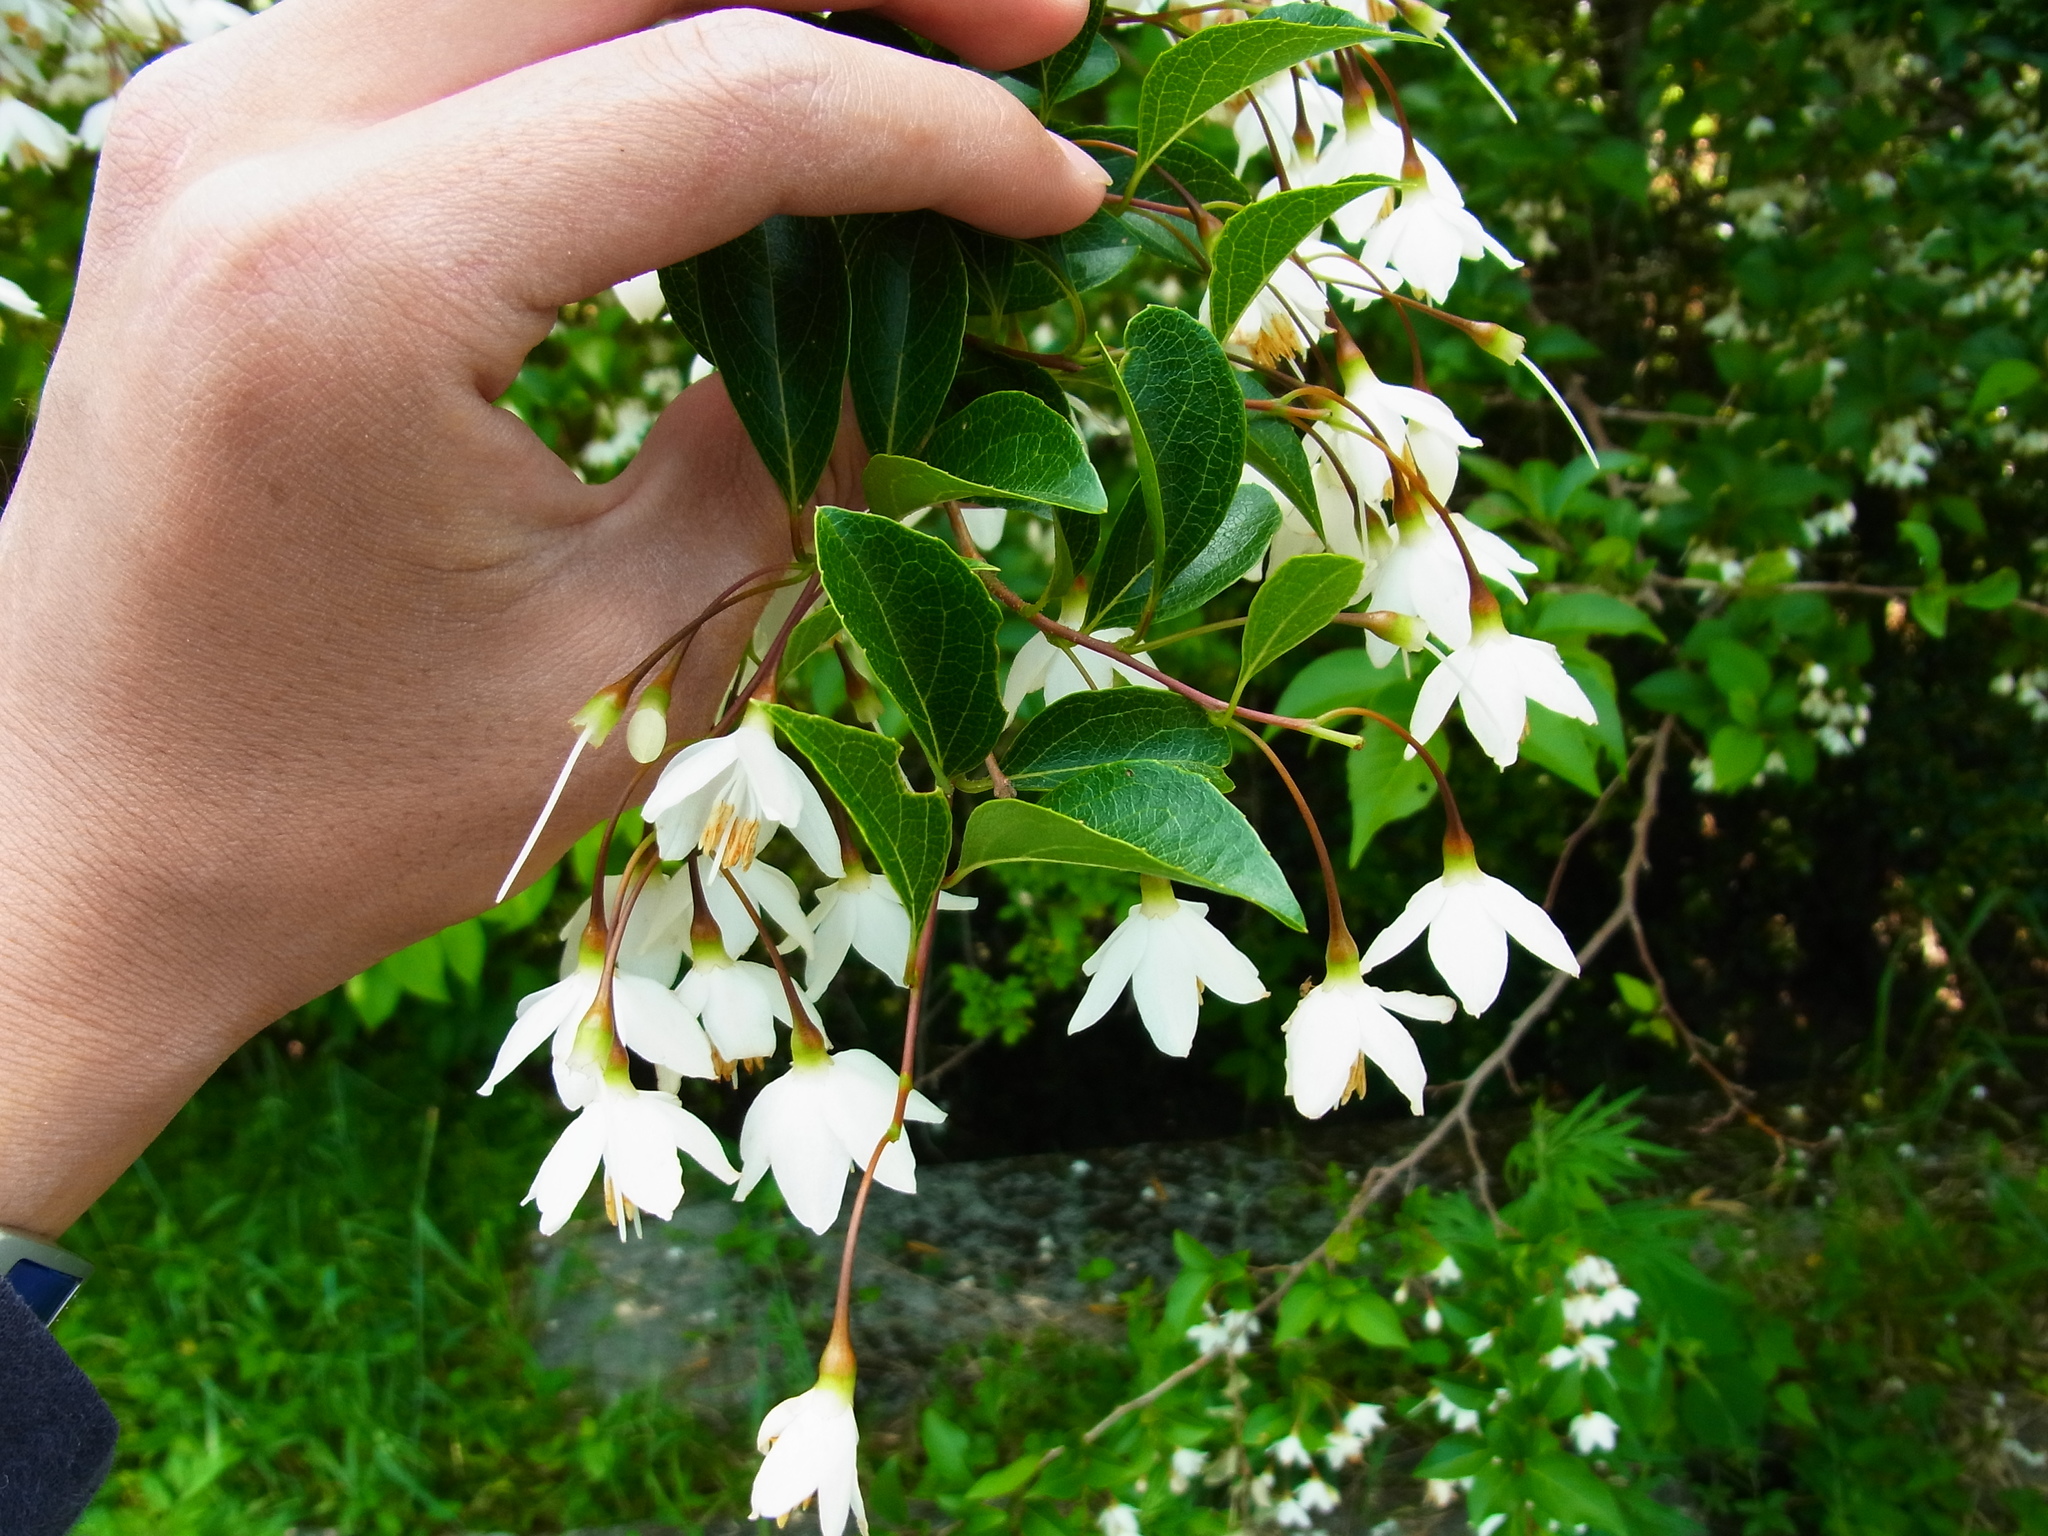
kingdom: Plantae
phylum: Tracheophyta
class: Magnoliopsida
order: Ericales
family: Styracaceae
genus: Styrax
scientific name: Styrax japonicus
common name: Japanese snowbell
